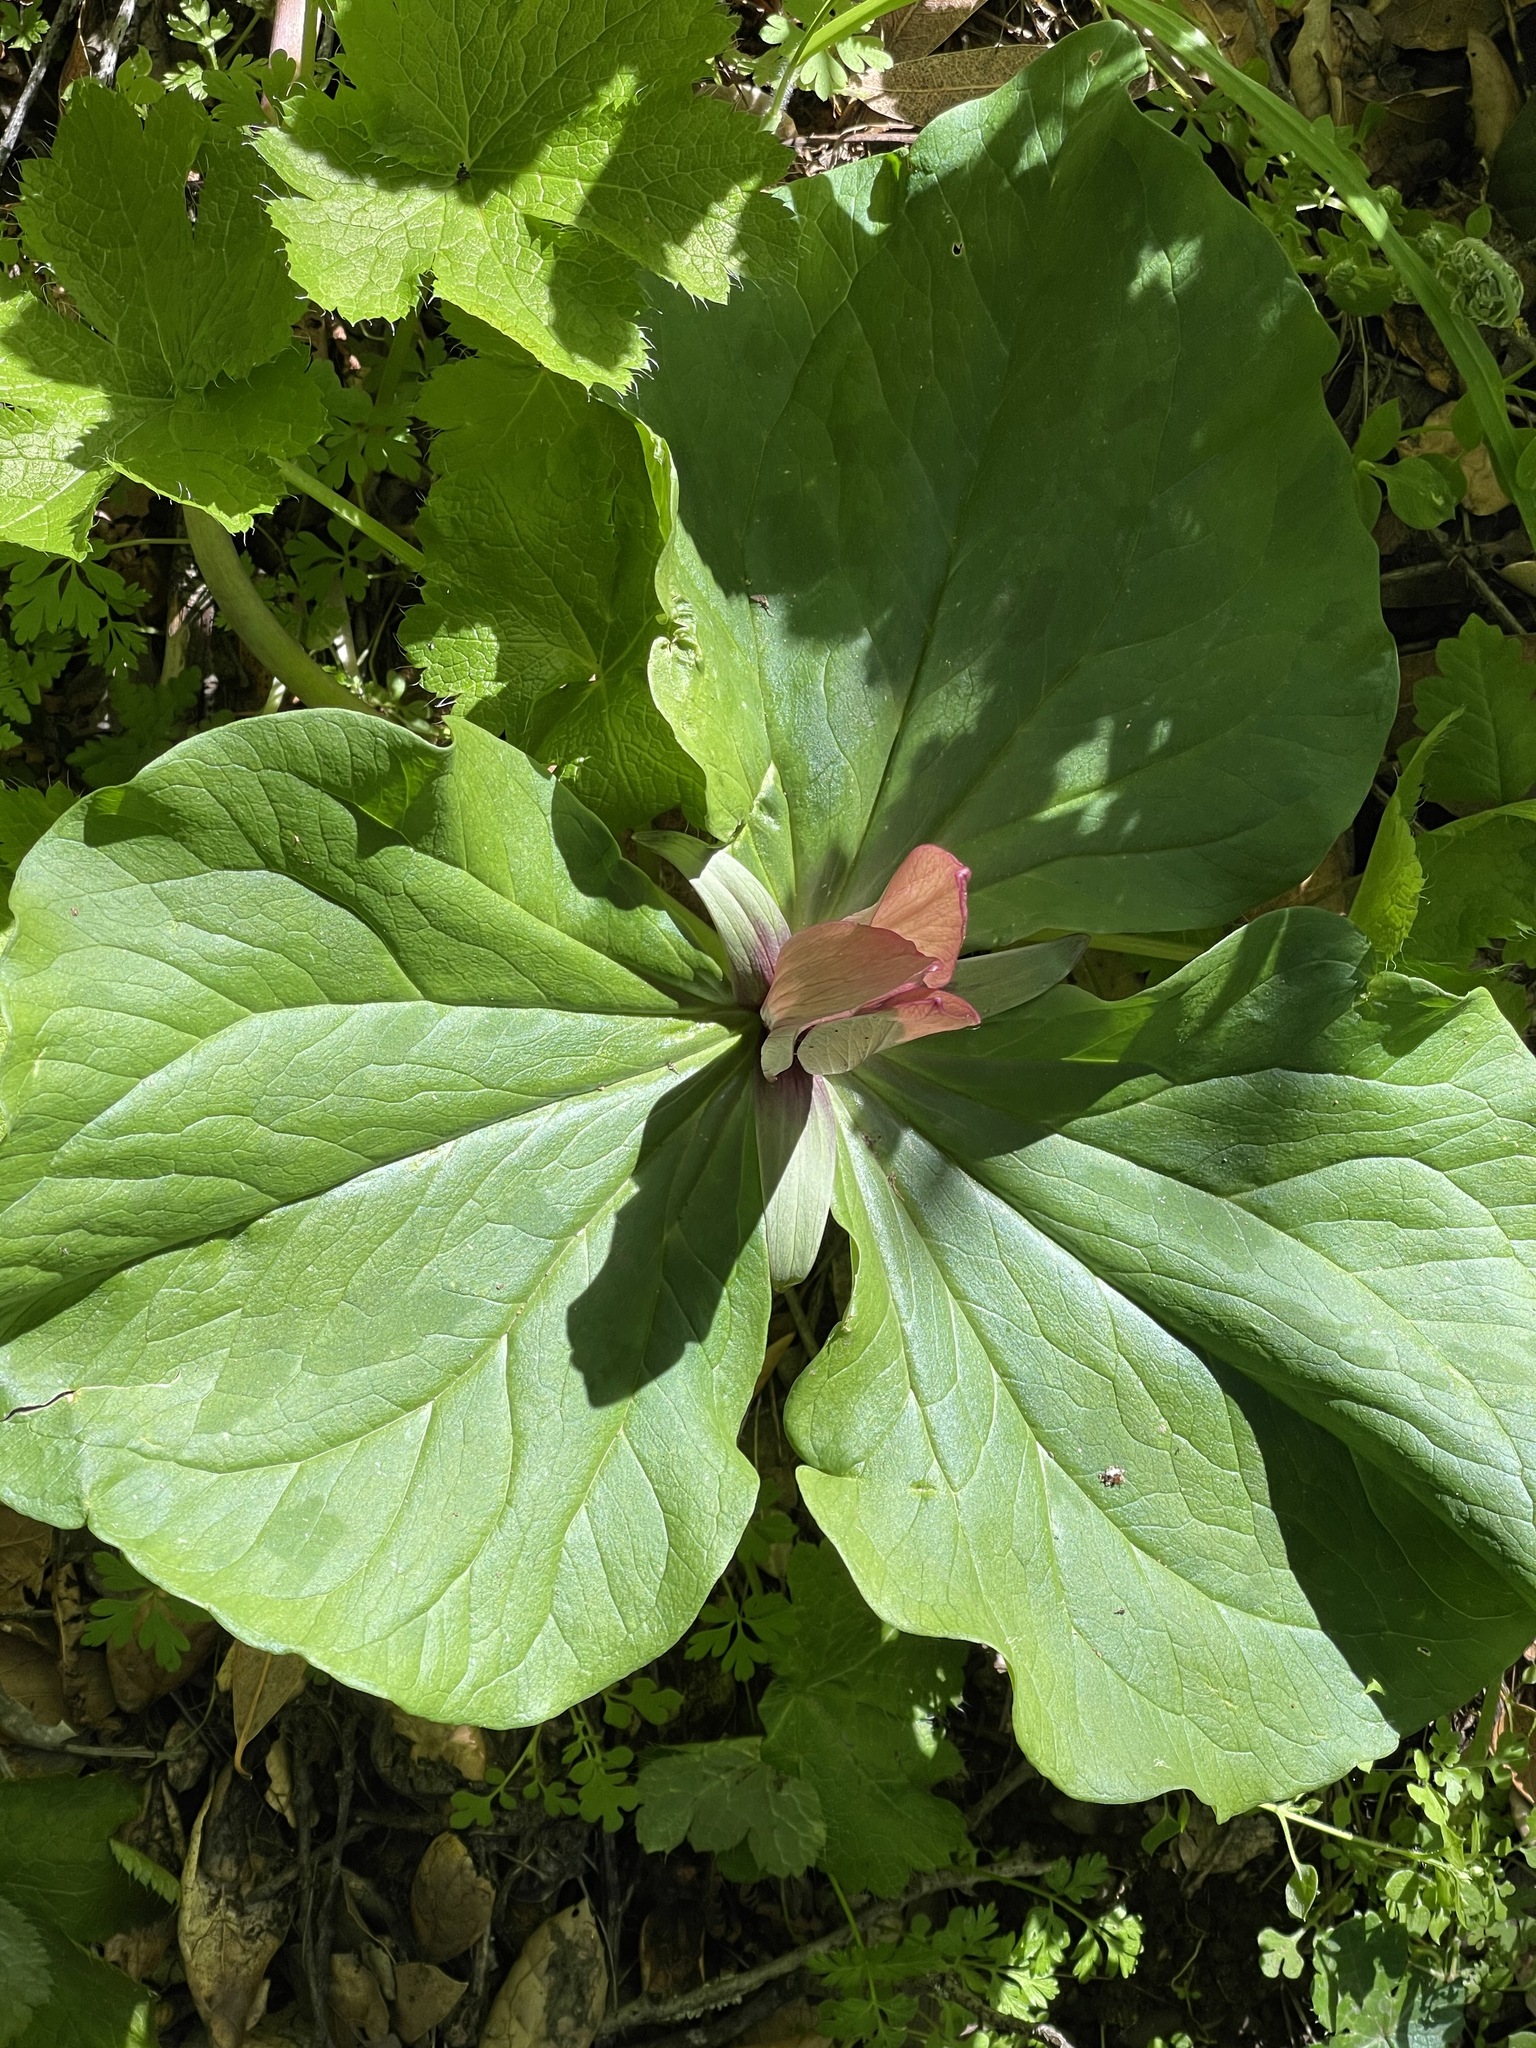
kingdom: Plantae
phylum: Tracheophyta
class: Liliopsida
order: Liliales
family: Melanthiaceae
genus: Trillium
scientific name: Trillium chloropetalum
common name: Giant trillium
